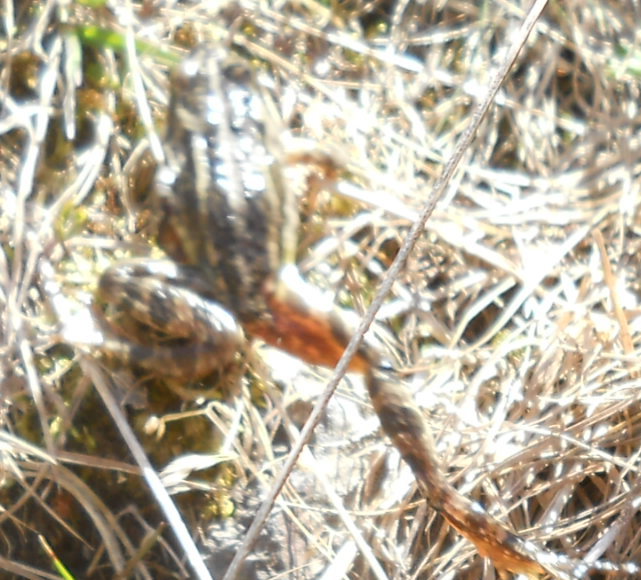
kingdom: Animalia
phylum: Chordata
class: Amphibia
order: Anura
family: Ranidae
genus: Rana
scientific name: Rana macrocnemis
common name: Banded frog
